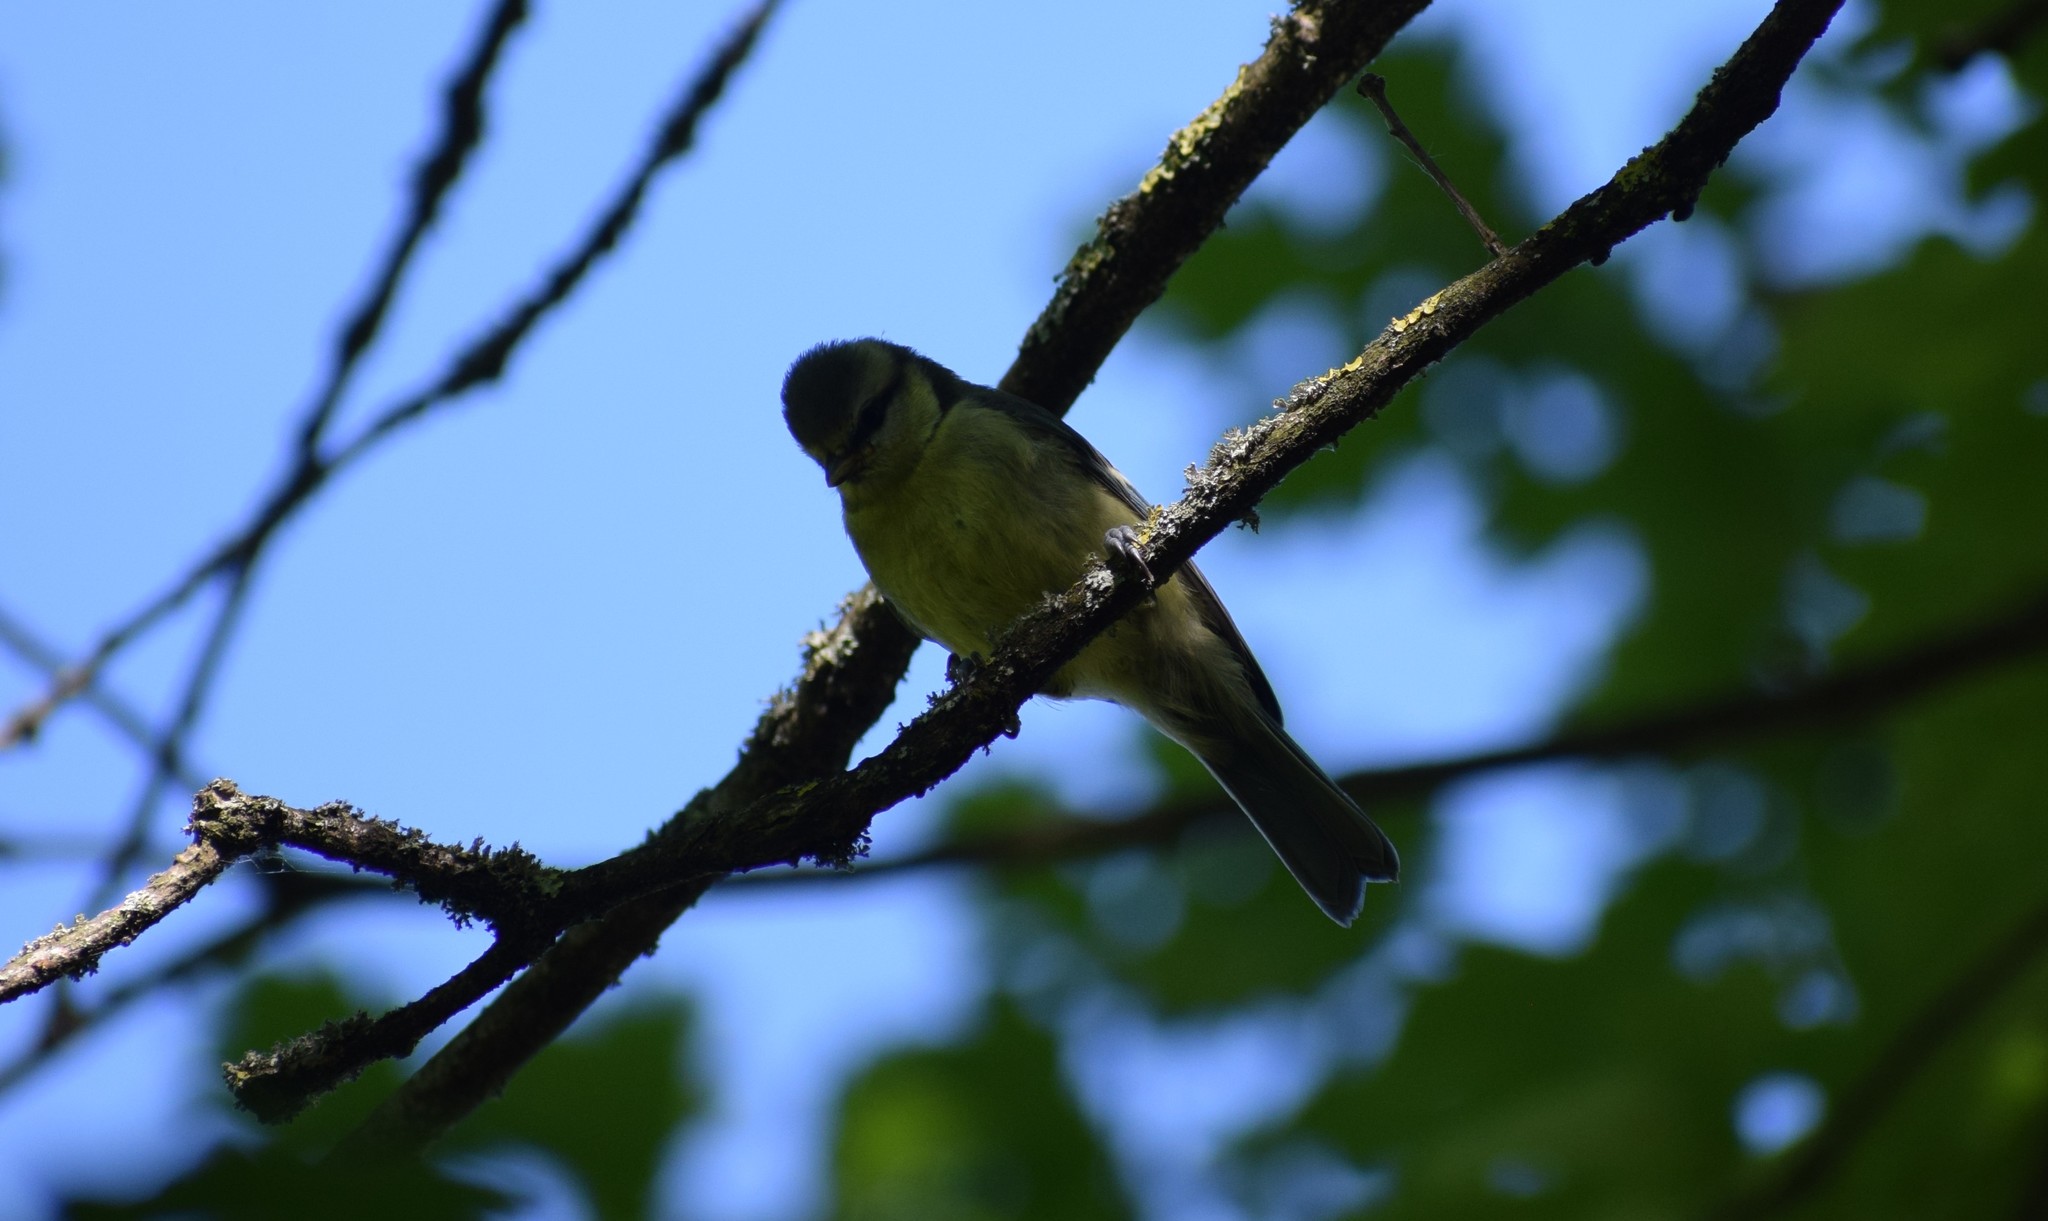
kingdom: Animalia
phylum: Chordata
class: Aves
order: Passeriformes
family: Paridae
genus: Cyanistes
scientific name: Cyanistes caeruleus
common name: Eurasian blue tit
